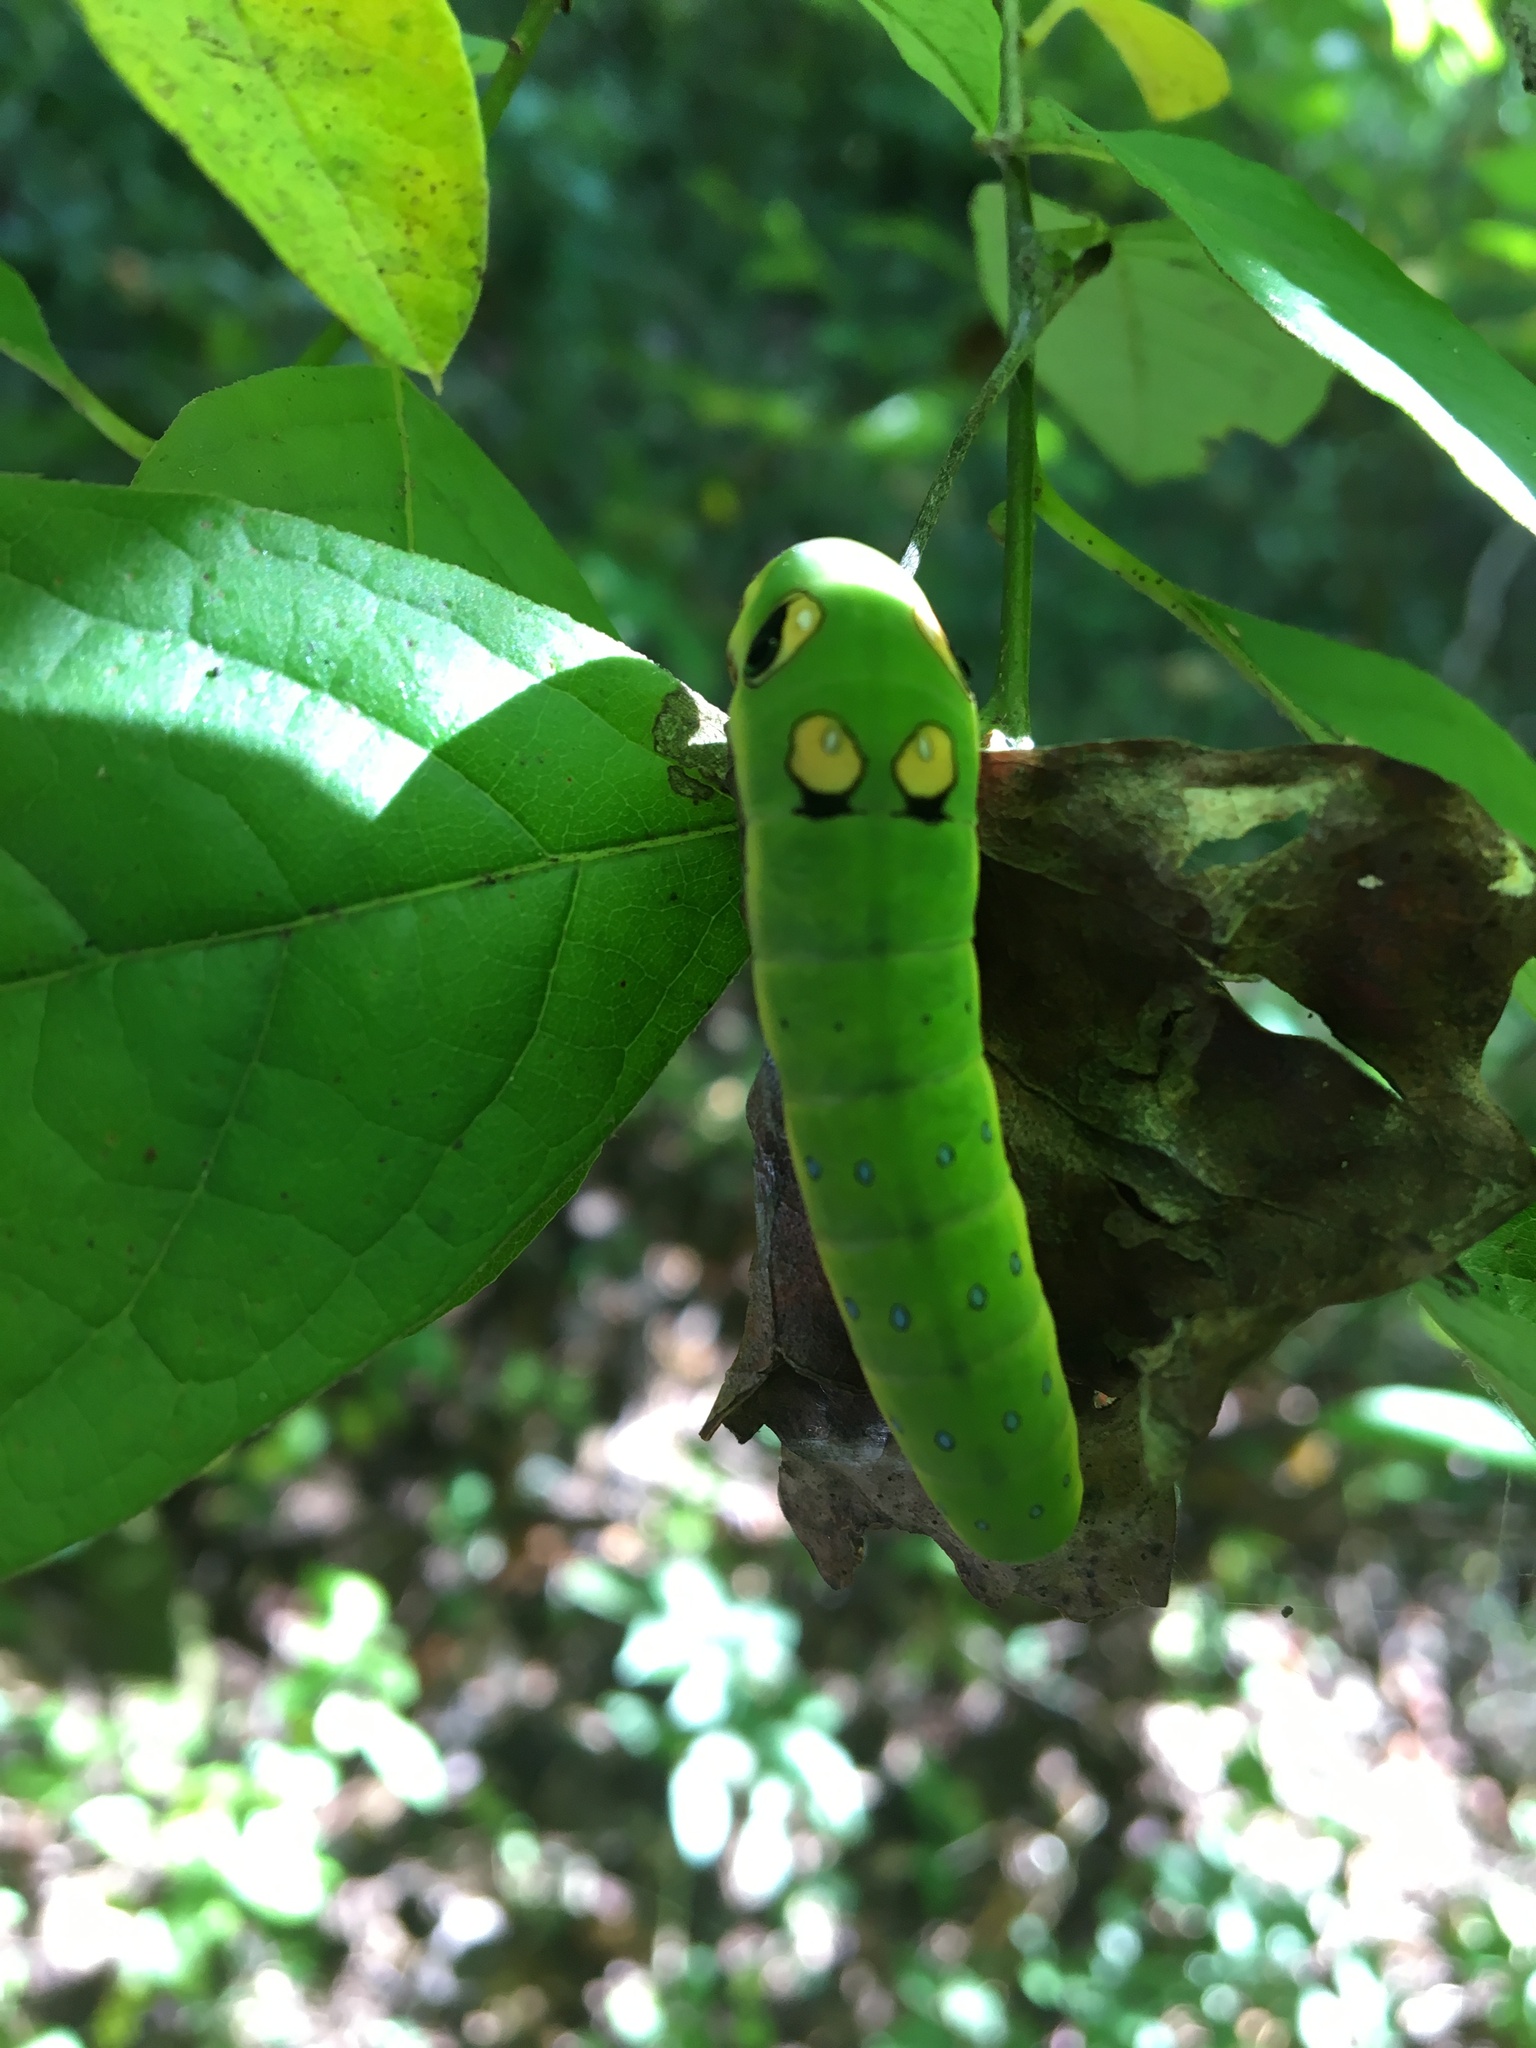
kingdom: Animalia
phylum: Arthropoda
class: Insecta
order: Lepidoptera
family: Papilionidae
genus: Papilio
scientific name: Papilio troilus
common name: Spicebush swallowtail
